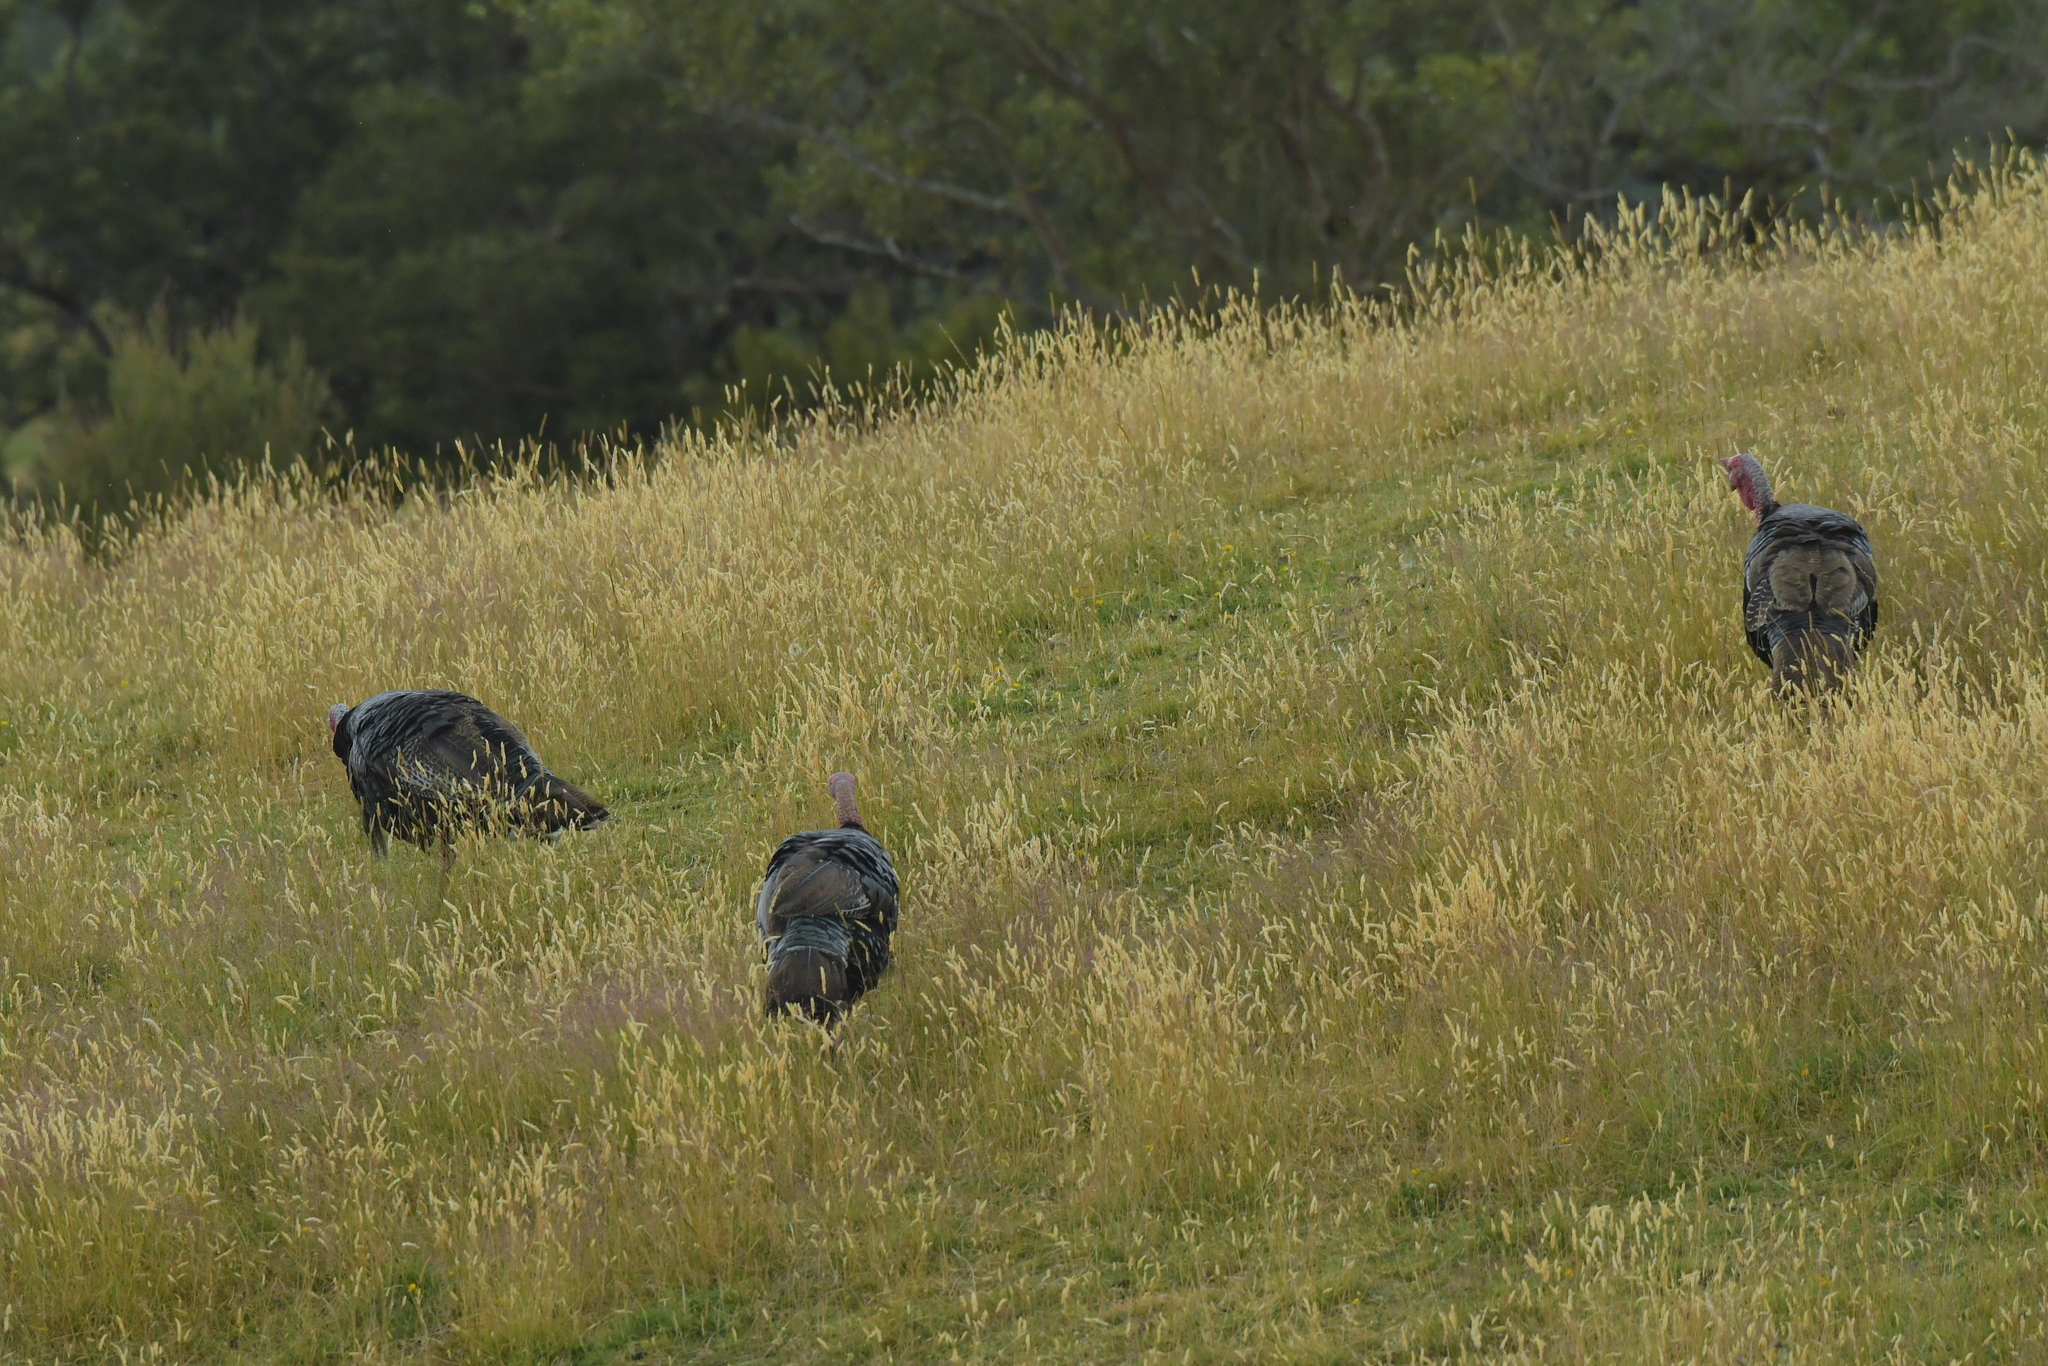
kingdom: Animalia
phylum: Chordata
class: Aves
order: Galliformes
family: Phasianidae
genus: Meleagris
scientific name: Meleagris gallopavo
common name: Wild turkey
